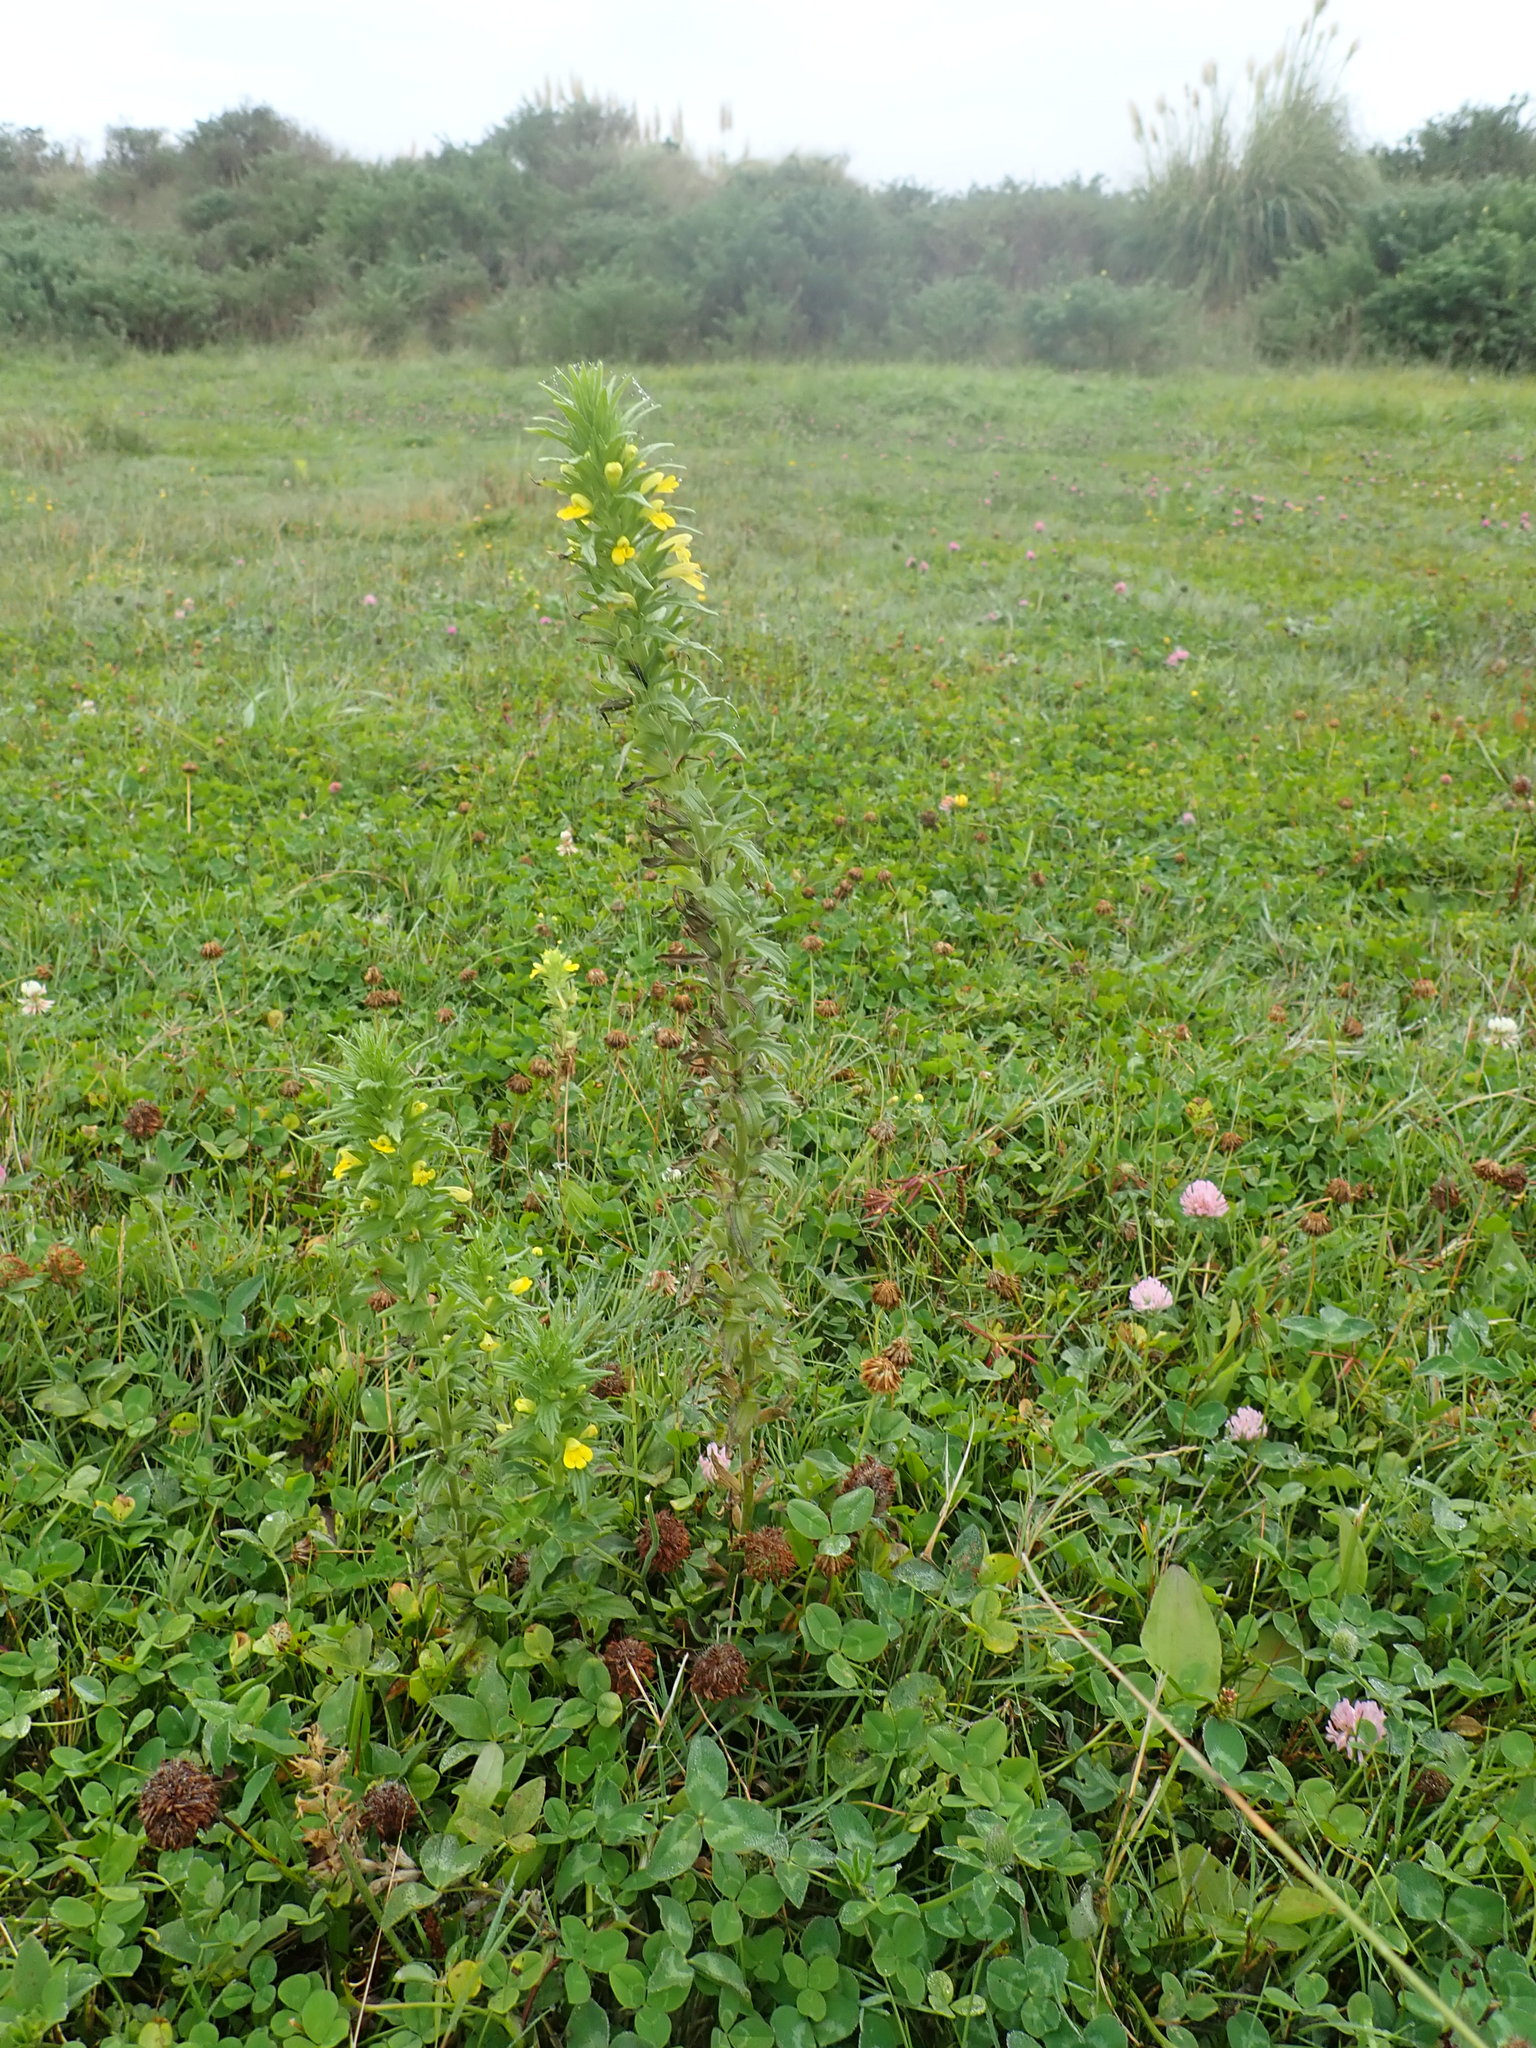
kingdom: Plantae
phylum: Tracheophyta
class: Magnoliopsida
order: Lamiales
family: Orobanchaceae
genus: Bellardia
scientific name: Bellardia viscosa
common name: Sticky parentucellia
